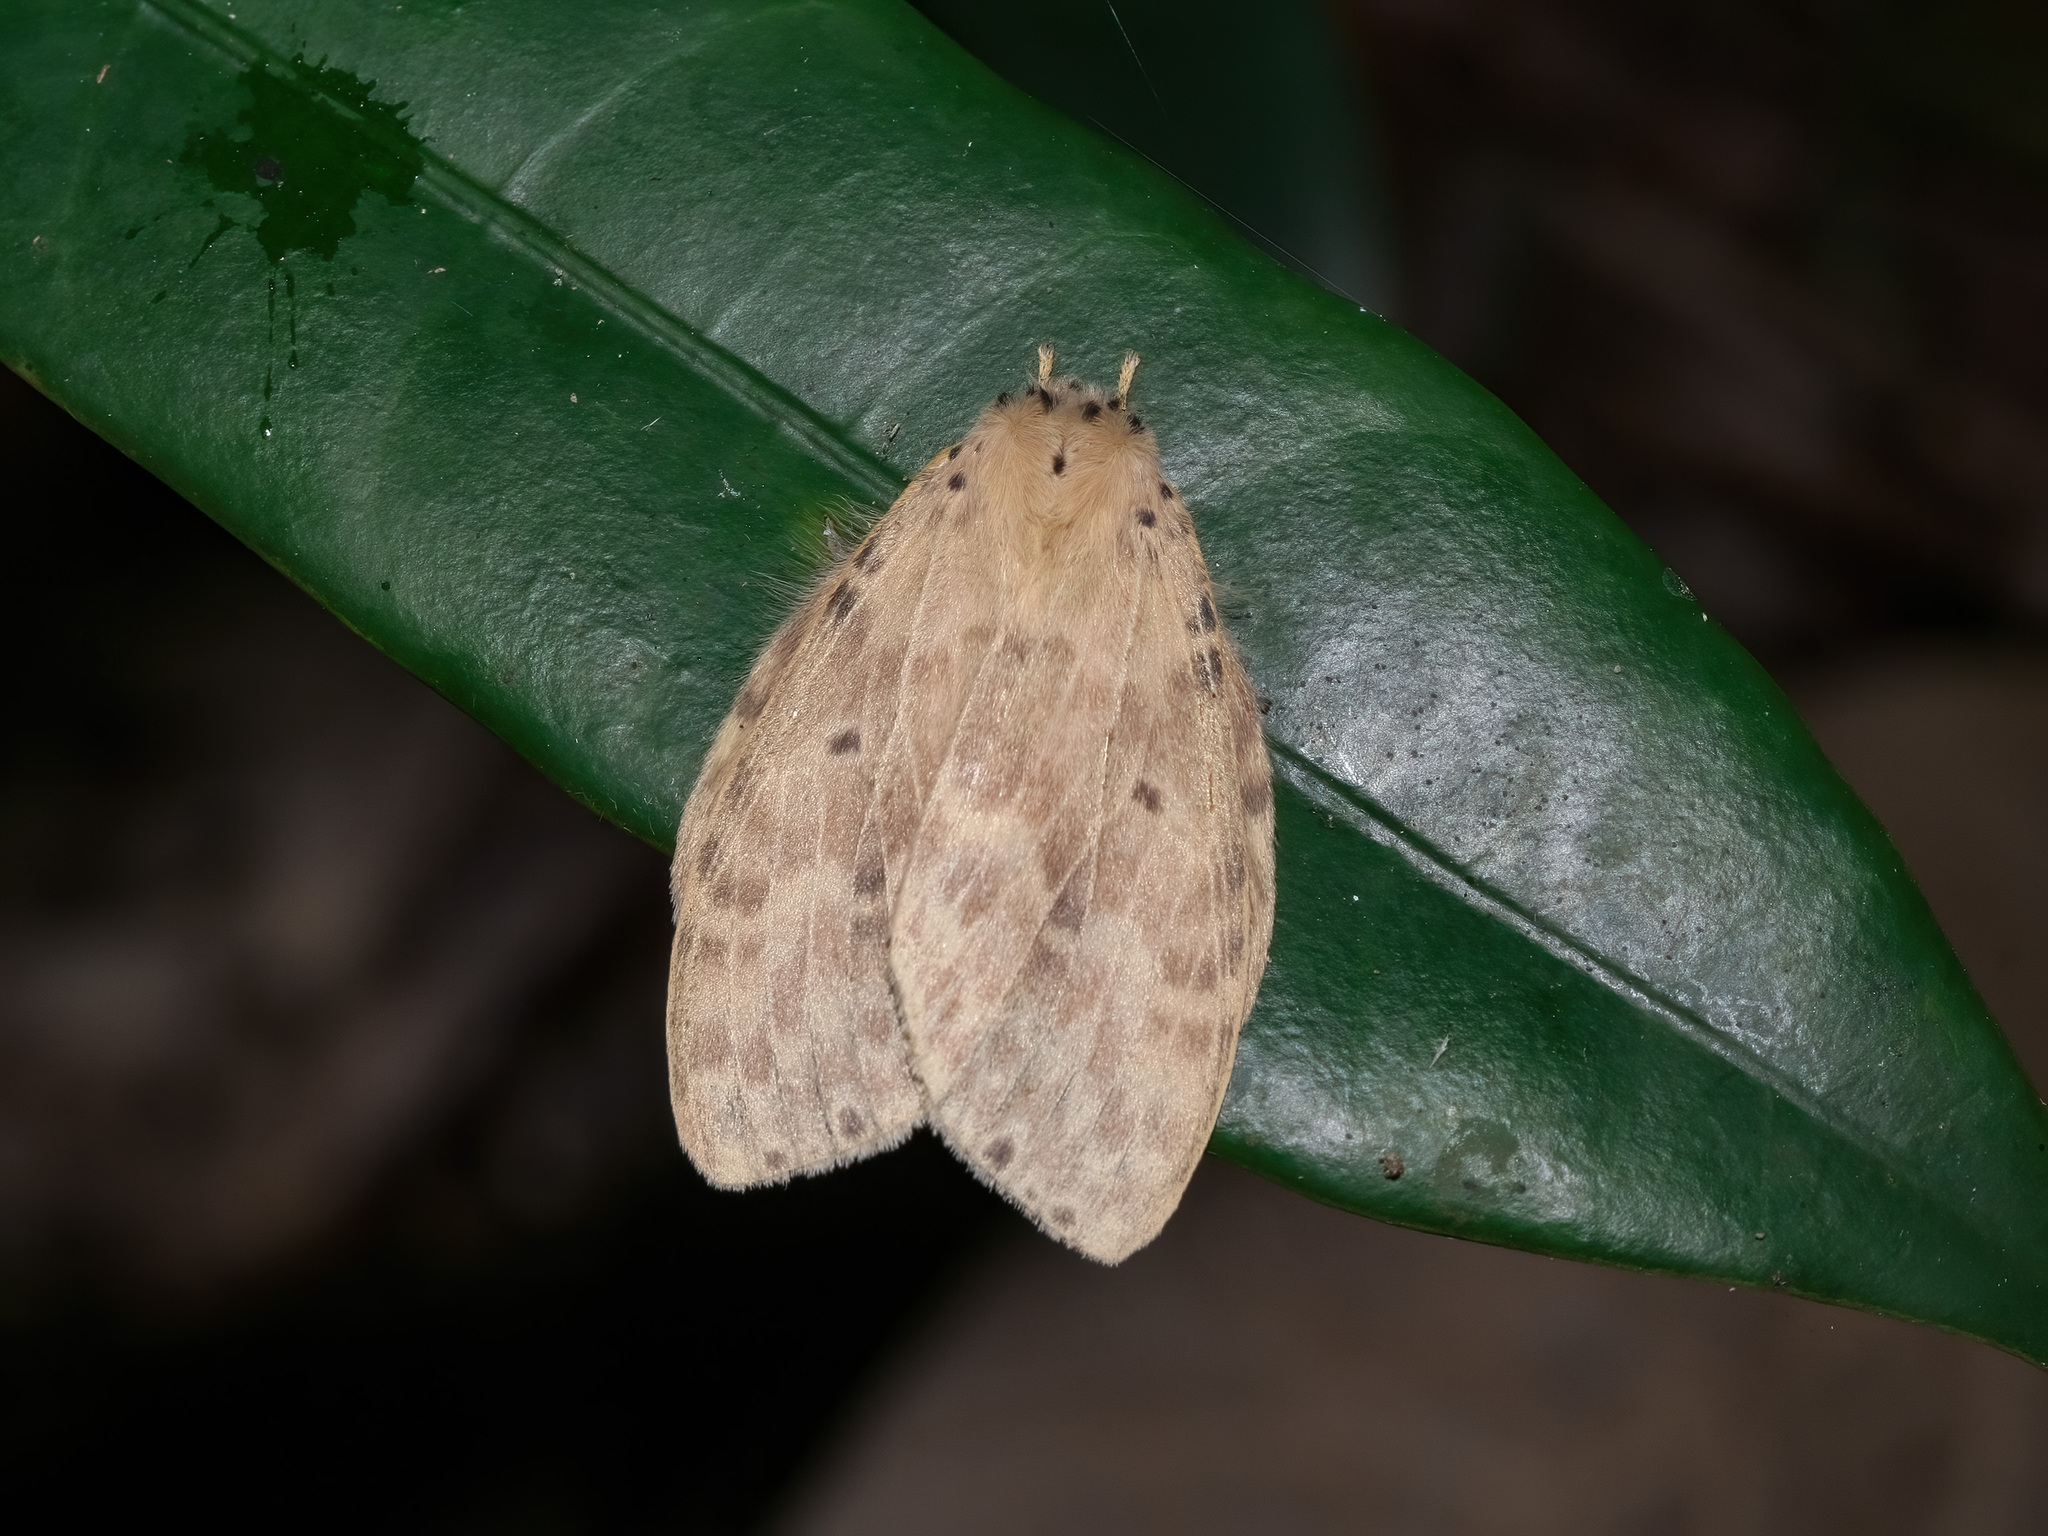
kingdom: Animalia
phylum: Arthropoda
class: Insecta
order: Lepidoptera
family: Notodontidae
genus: Cerasana
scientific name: Cerasana
